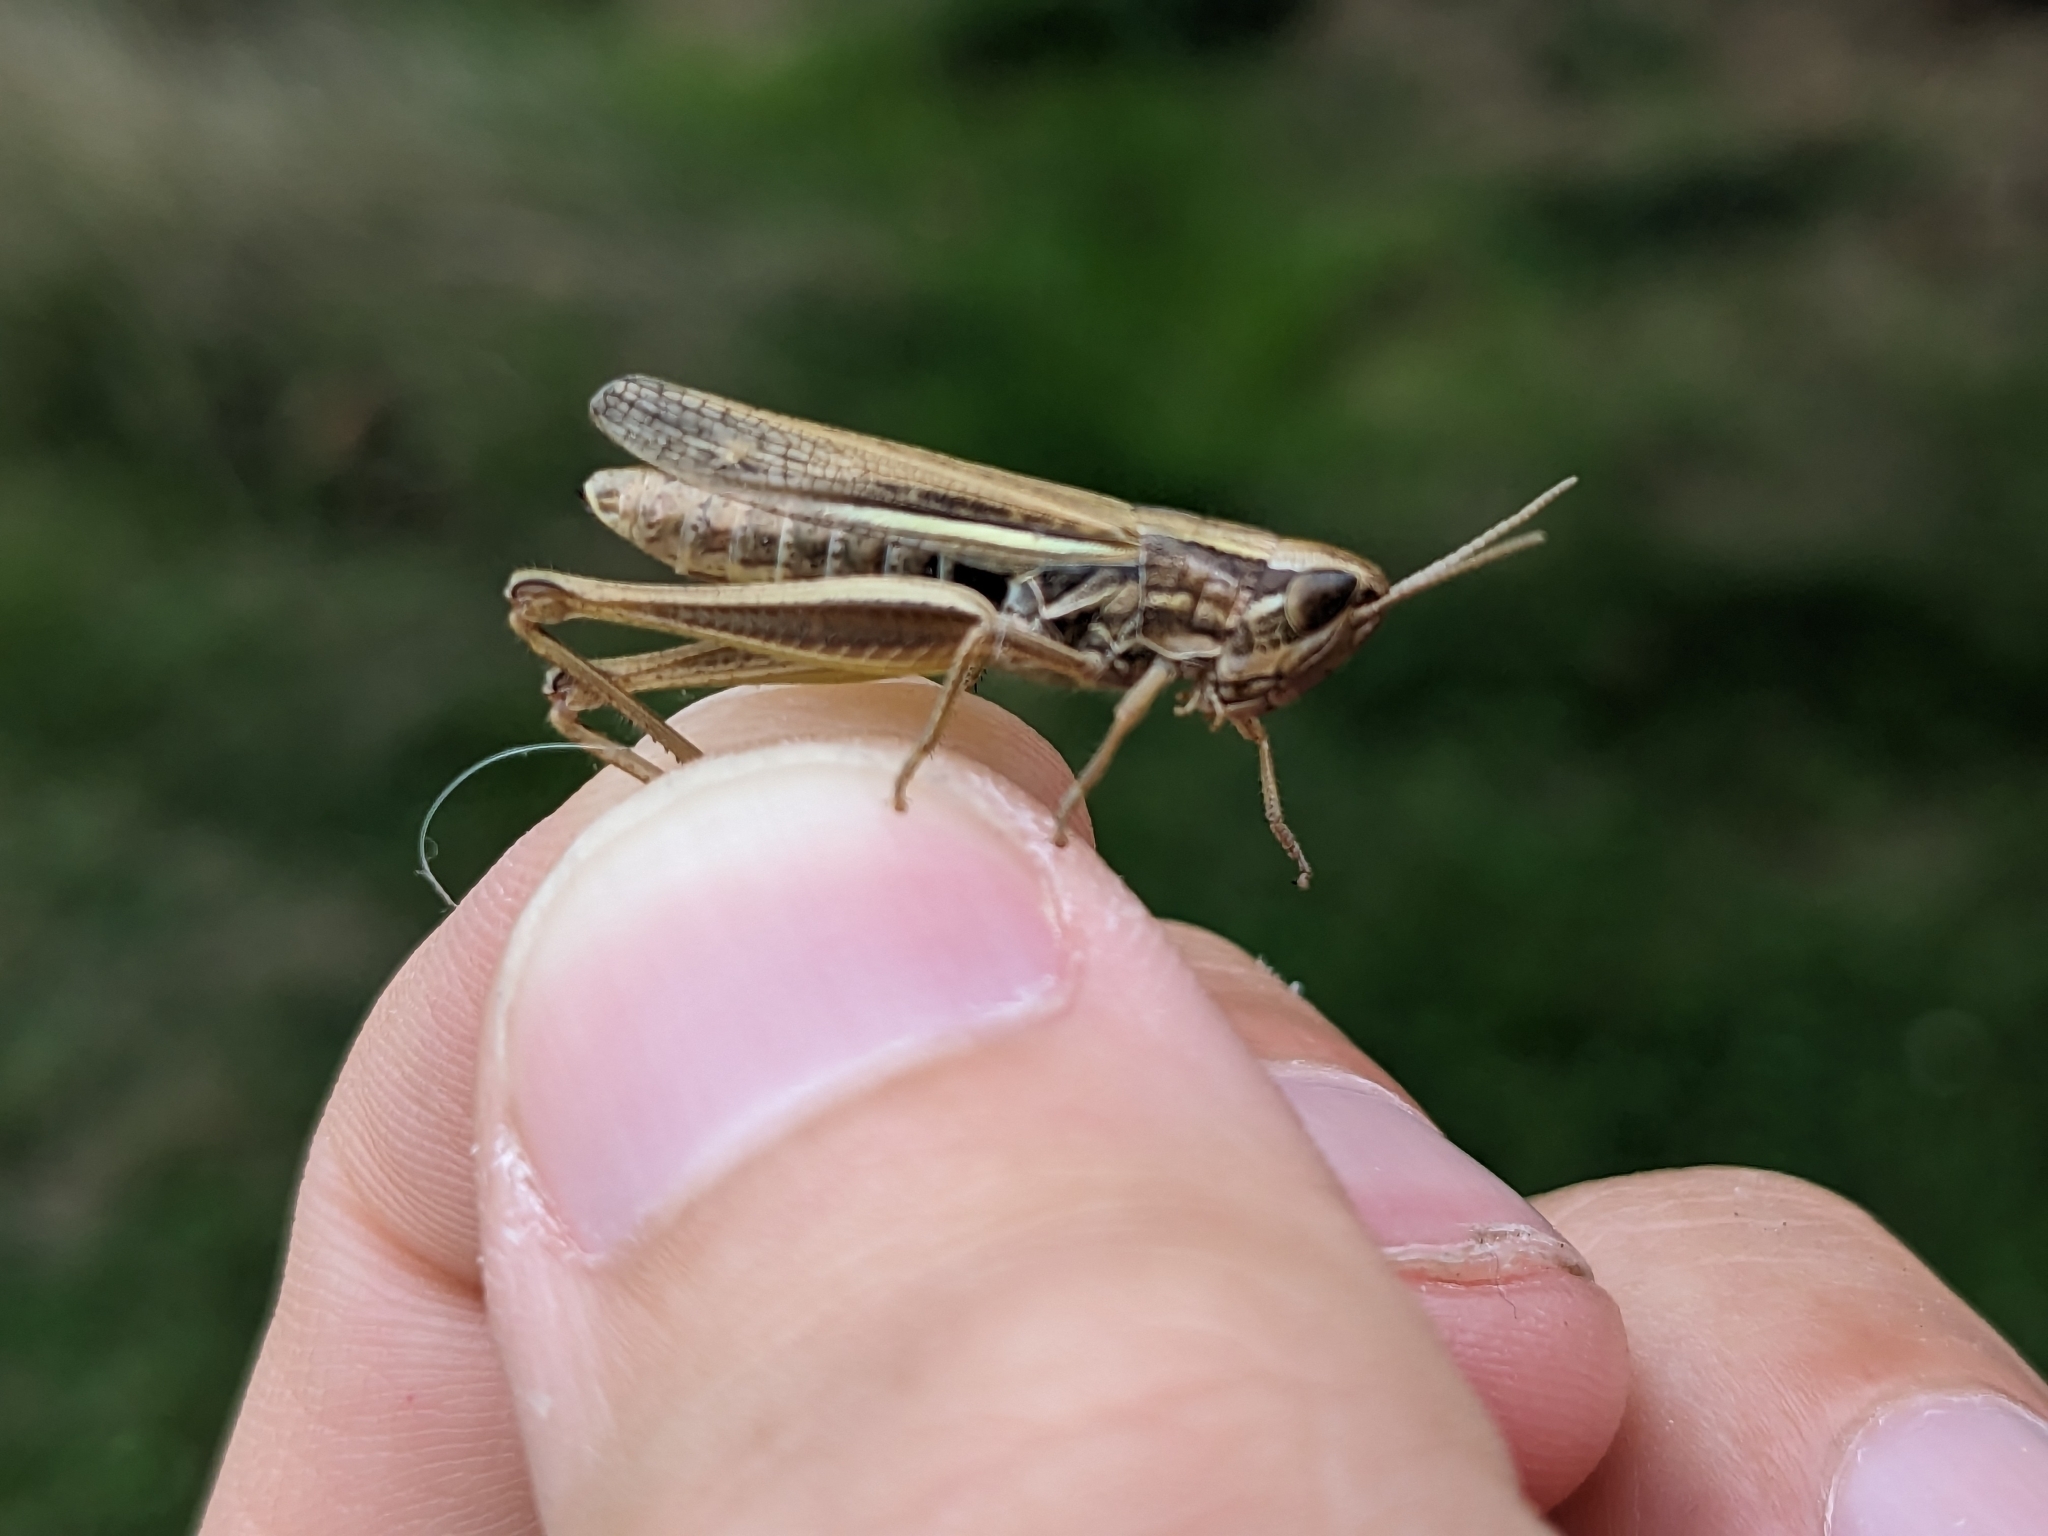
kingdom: Animalia
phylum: Arthropoda
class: Insecta
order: Orthoptera
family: Acrididae
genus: Euchorthippus
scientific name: Euchorthippus elegantulus
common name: Elegant straw grasshopper
